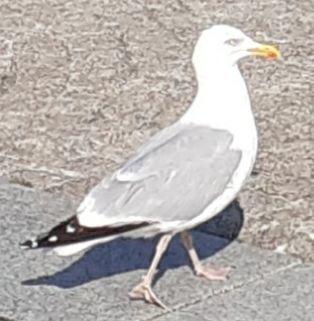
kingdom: Animalia
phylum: Chordata
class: Aves
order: Charadriiformes
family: Laridae
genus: Larus
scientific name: Larus argentatus
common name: Herring gull
